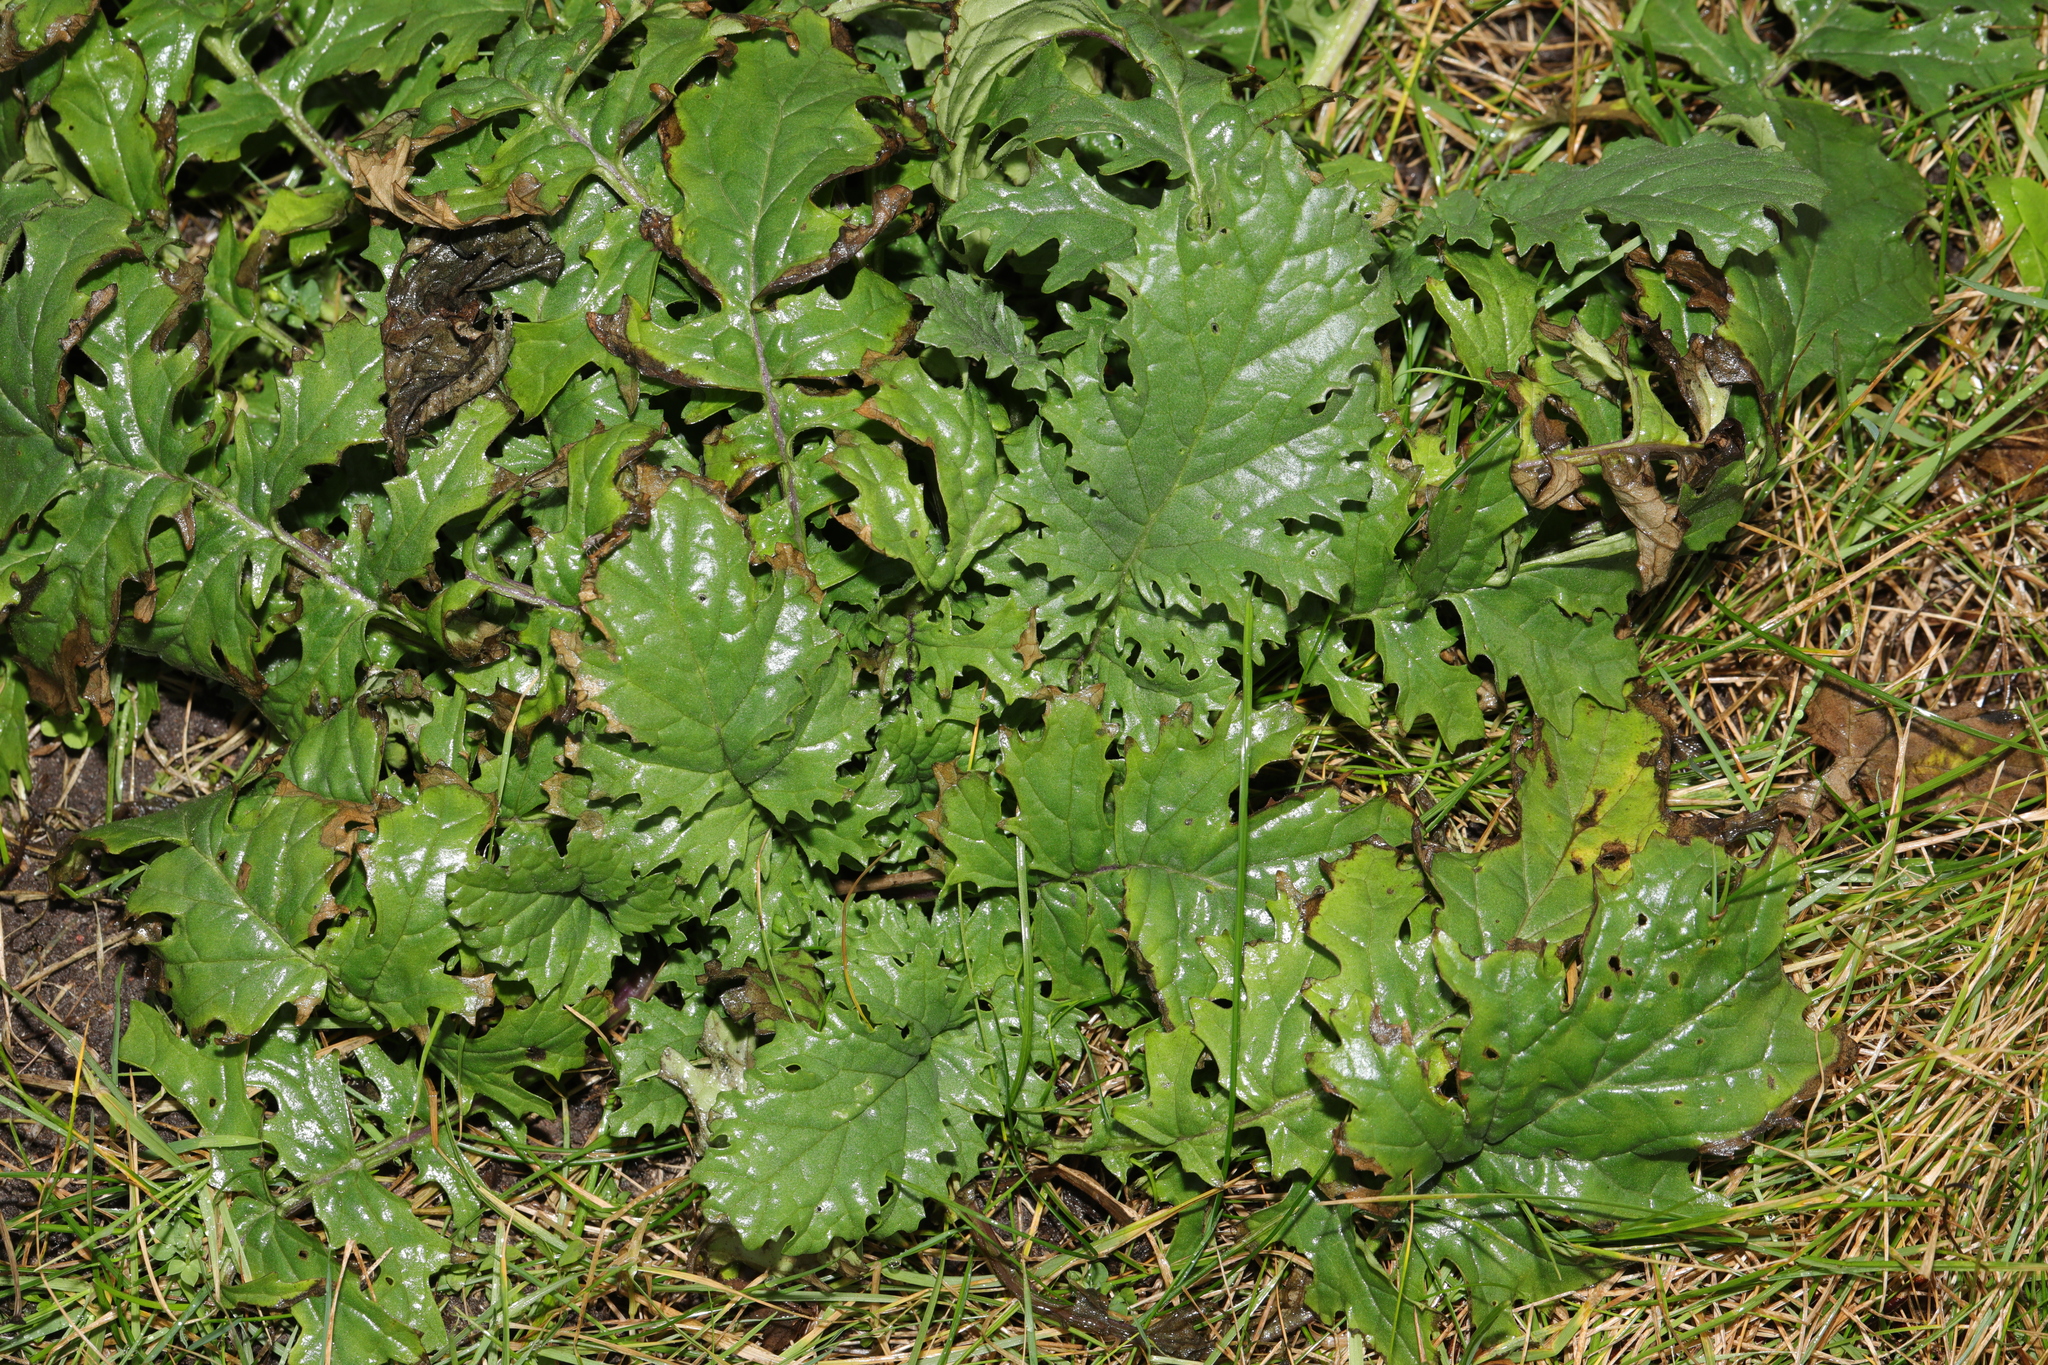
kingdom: Plantae
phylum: Tracheophyta
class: Magnoliopsida
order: Asterales
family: Asteraceae
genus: Jacobaea
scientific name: Jacobaea vulgaris
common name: Stinking willie
